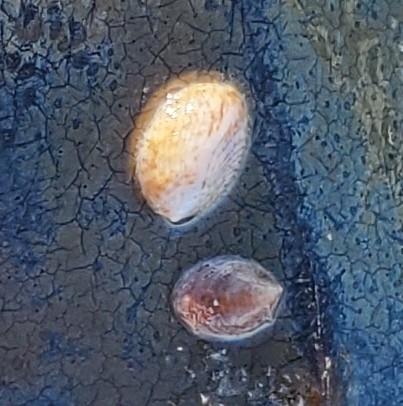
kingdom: Animalia
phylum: Mollusca
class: Gastropoda
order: Littorinimorpha
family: Calyptraeidae
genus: Crepidula
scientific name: Crepidula fornicata
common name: Slipper limpet
